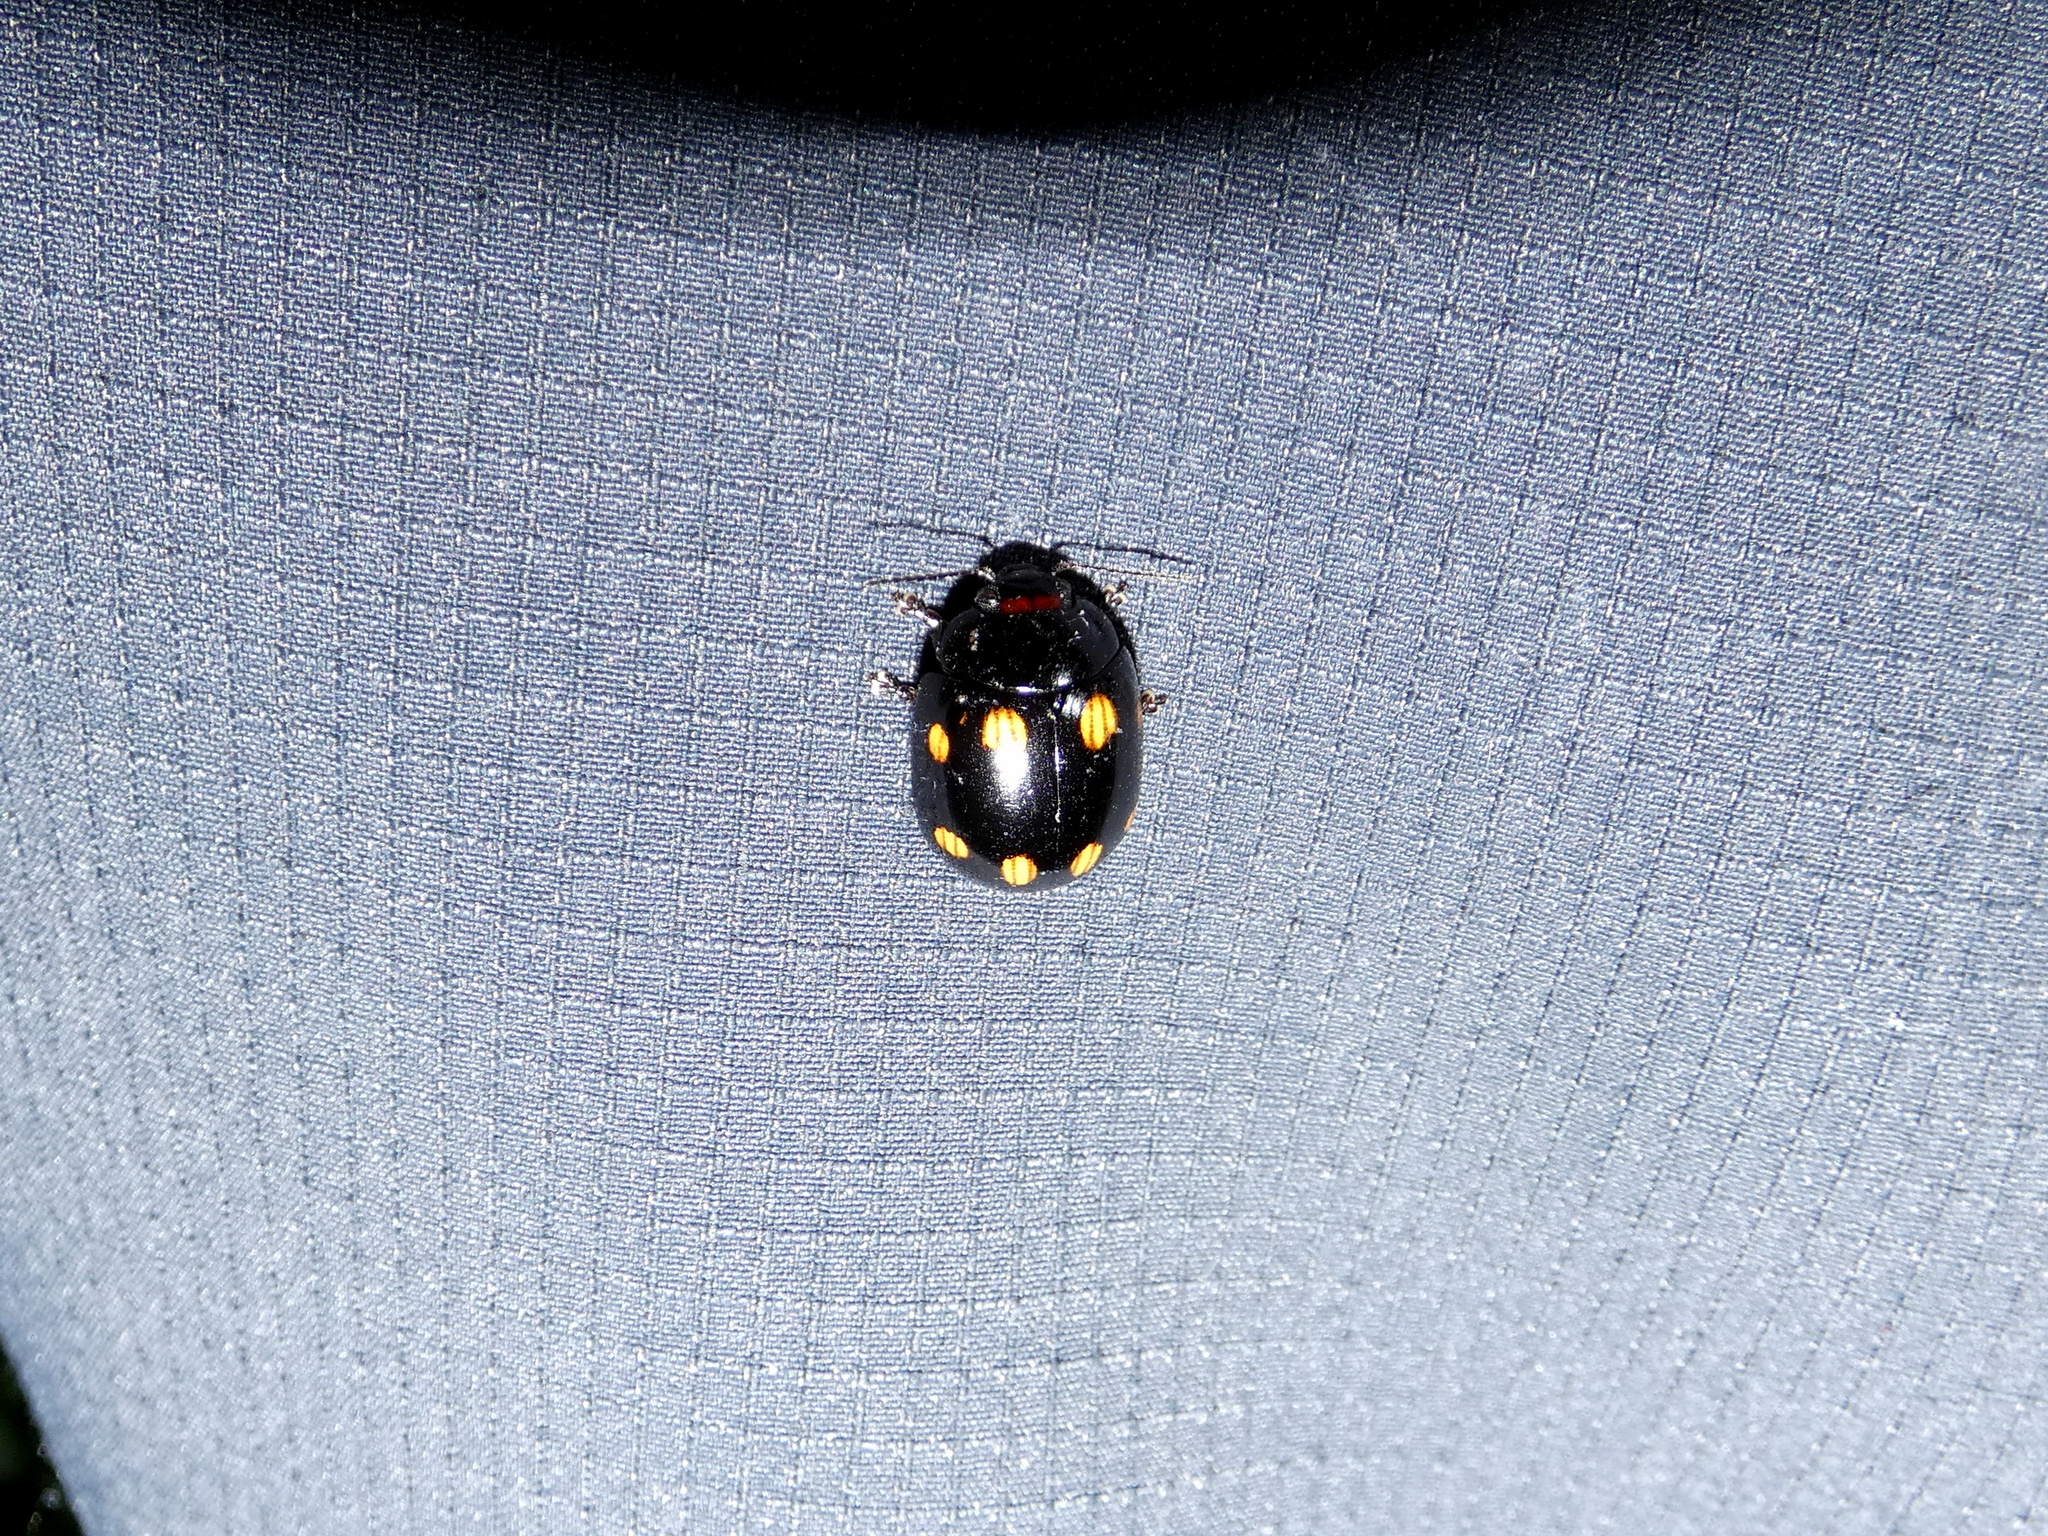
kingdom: Animalia
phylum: Arthropoda
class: Insecta
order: Coleoptera
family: Chrysomelidae
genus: Paropsisterna
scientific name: Paropsisterna
